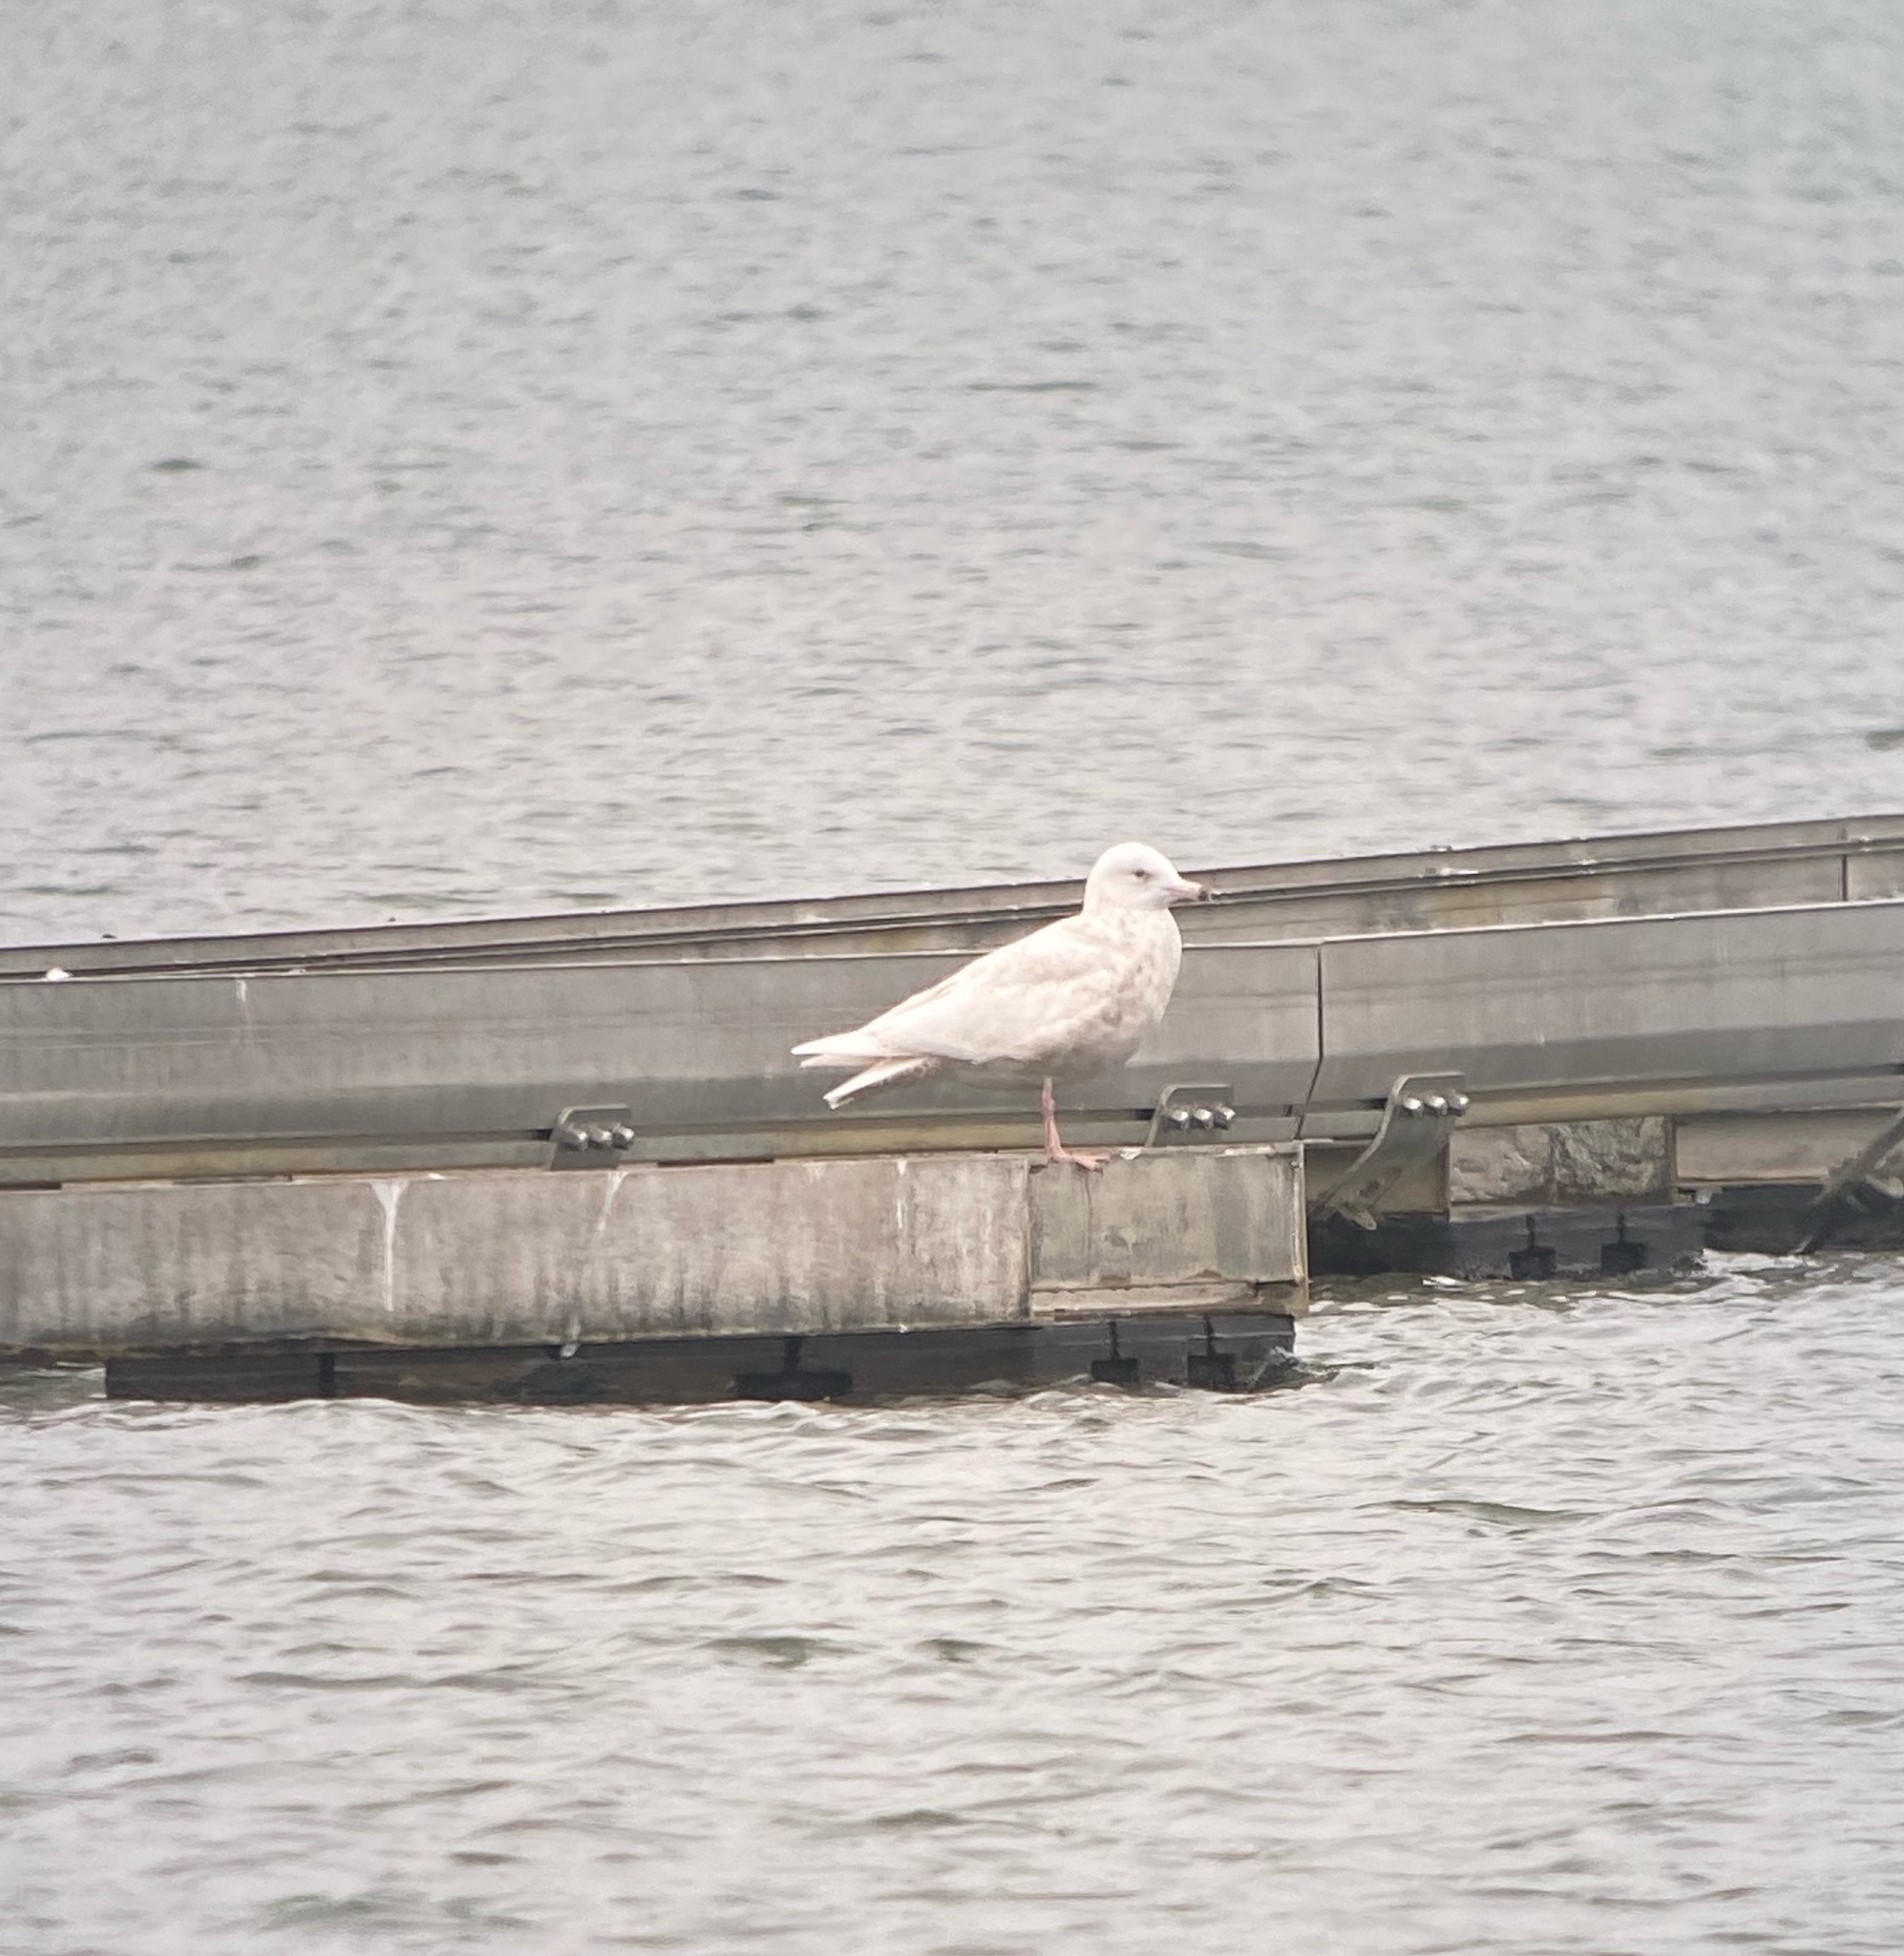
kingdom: Animalia
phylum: Chordata
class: Aves
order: Charadriiformes
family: Laridae
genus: Larus
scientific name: Larus hyperboreus
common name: Glaucous gull
